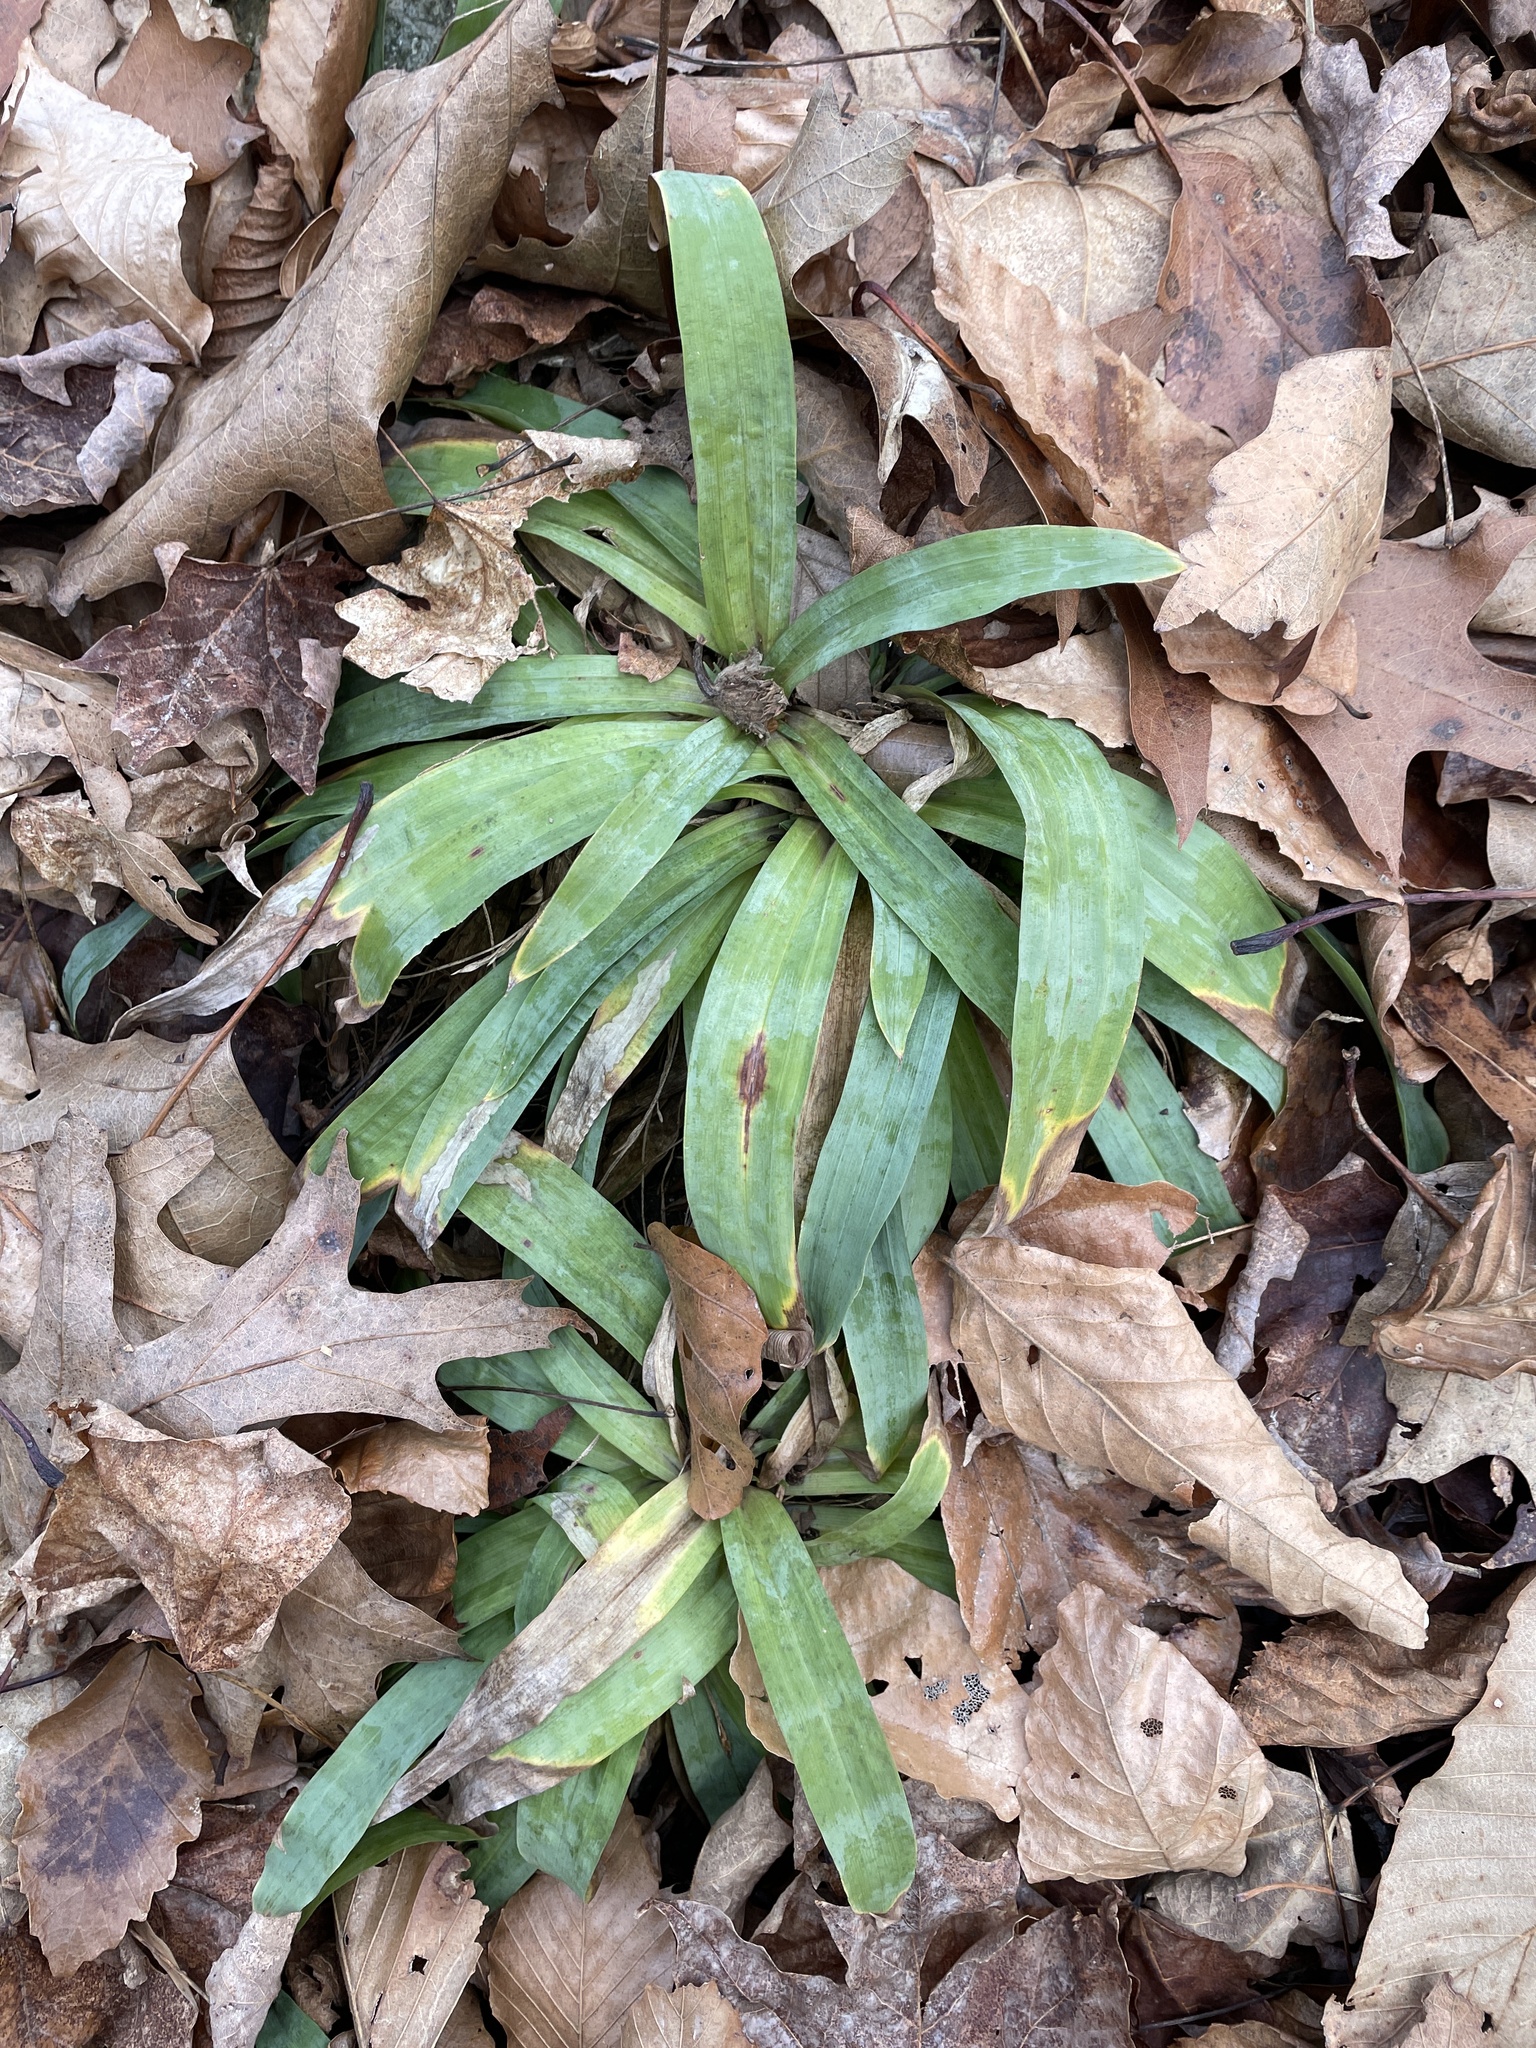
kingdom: Plantae
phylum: Tracheophyta
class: Liliopsida
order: Poales
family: Cyperaceae
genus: Carex
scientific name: Carex platyphylla
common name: Broad-leaved sedge
